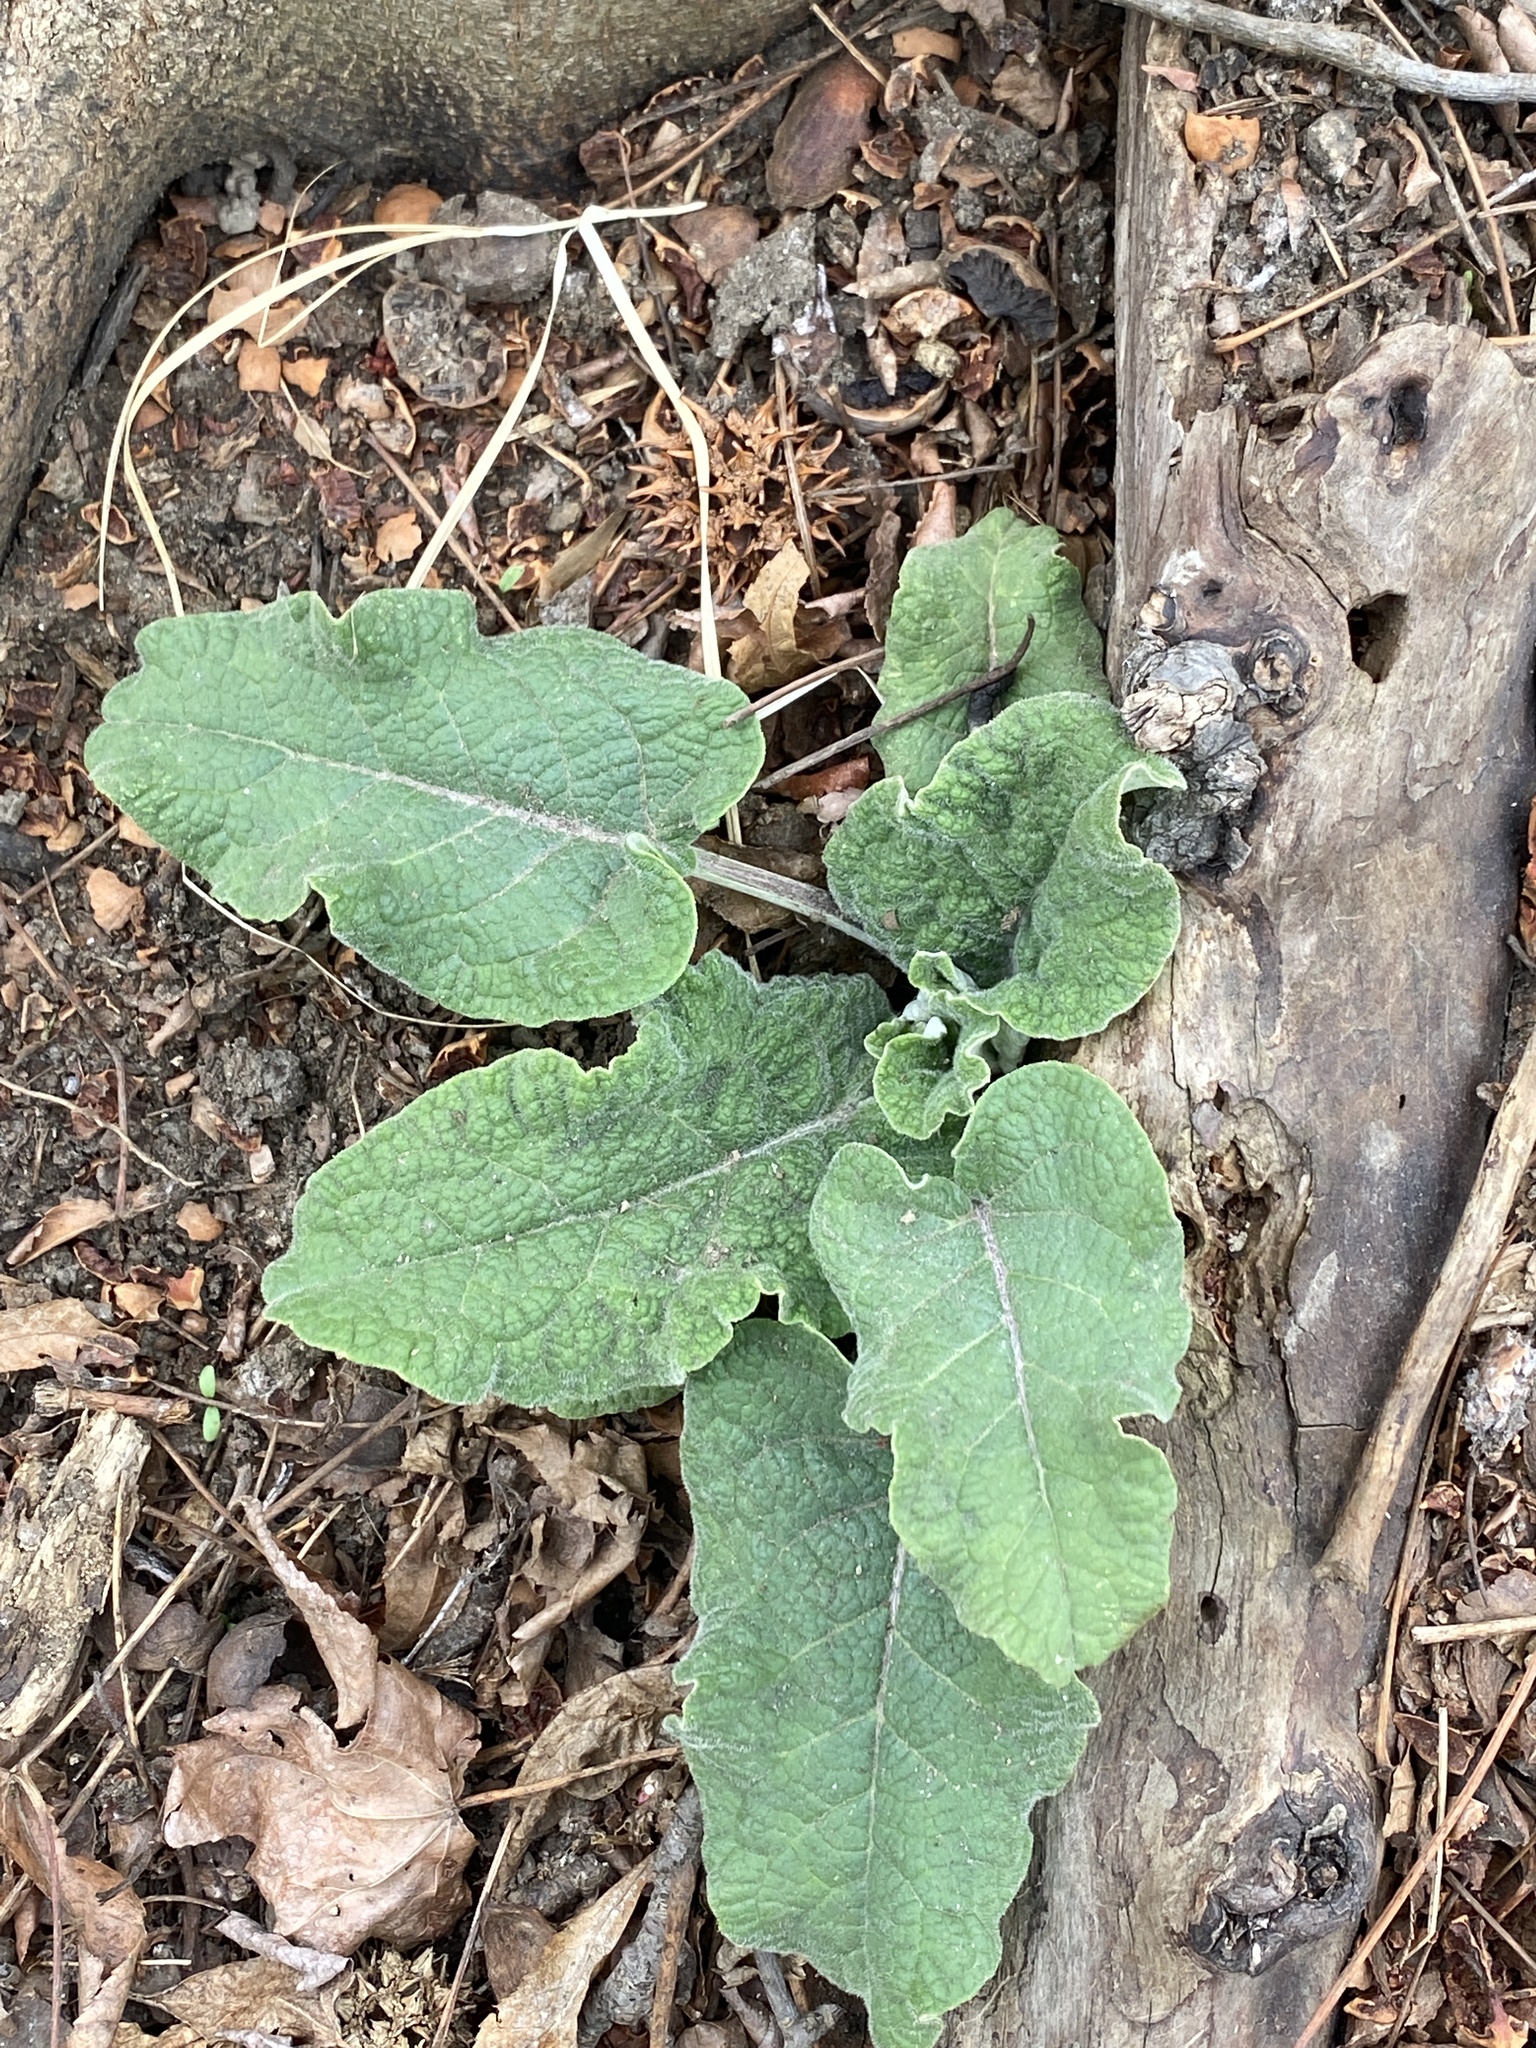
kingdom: Plantae
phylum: Tracheophyta
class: Magnoliopsida
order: Asterales
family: Asteraceae
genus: Arctium
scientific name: Arctium minus
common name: Lesser burdock
